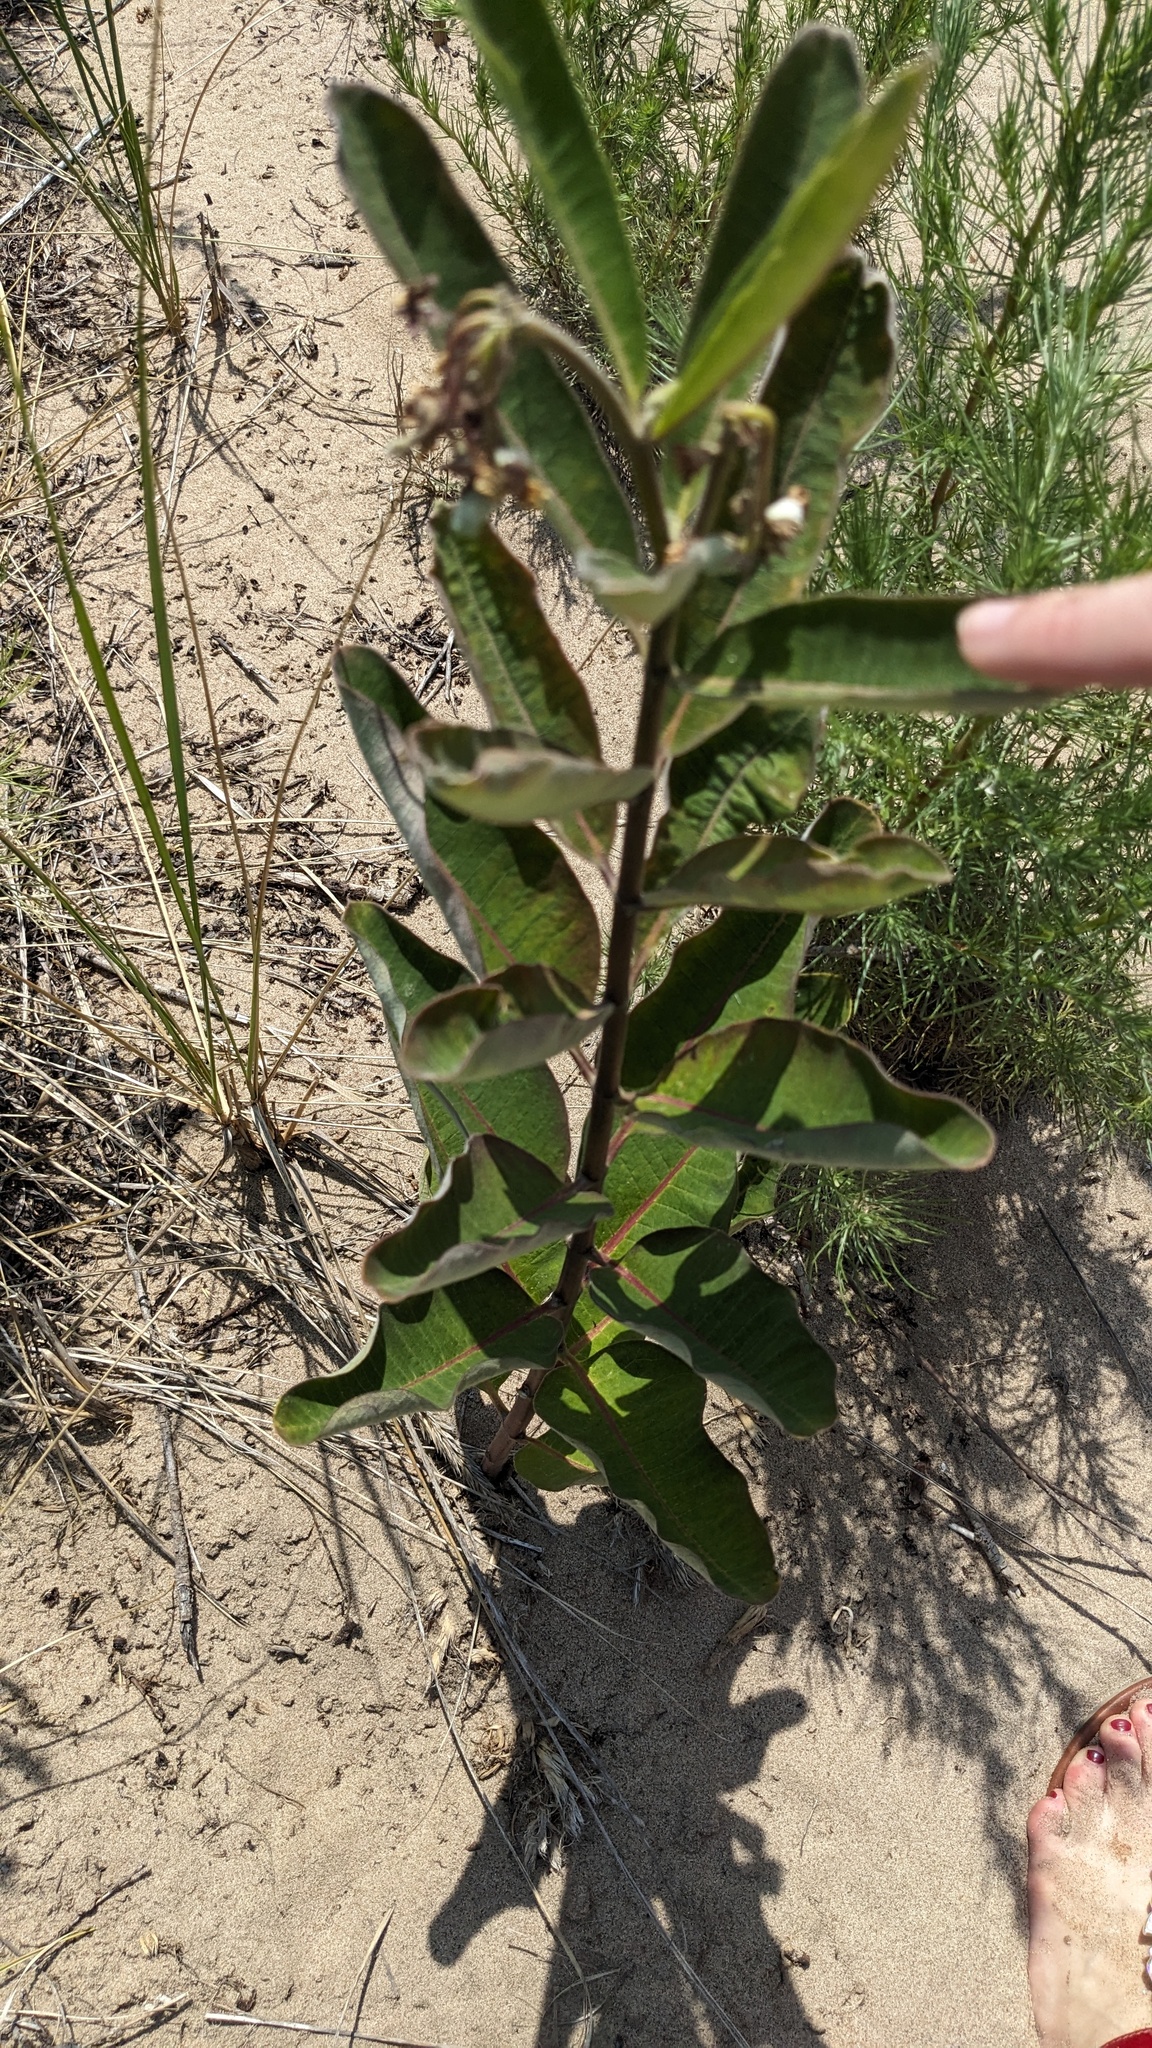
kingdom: Plantae
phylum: Tracheophyta
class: Magnoliopsida
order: Gentianales
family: Apocynaceae
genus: Asclepias
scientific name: Asclepias syriaca
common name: Common milkweed
